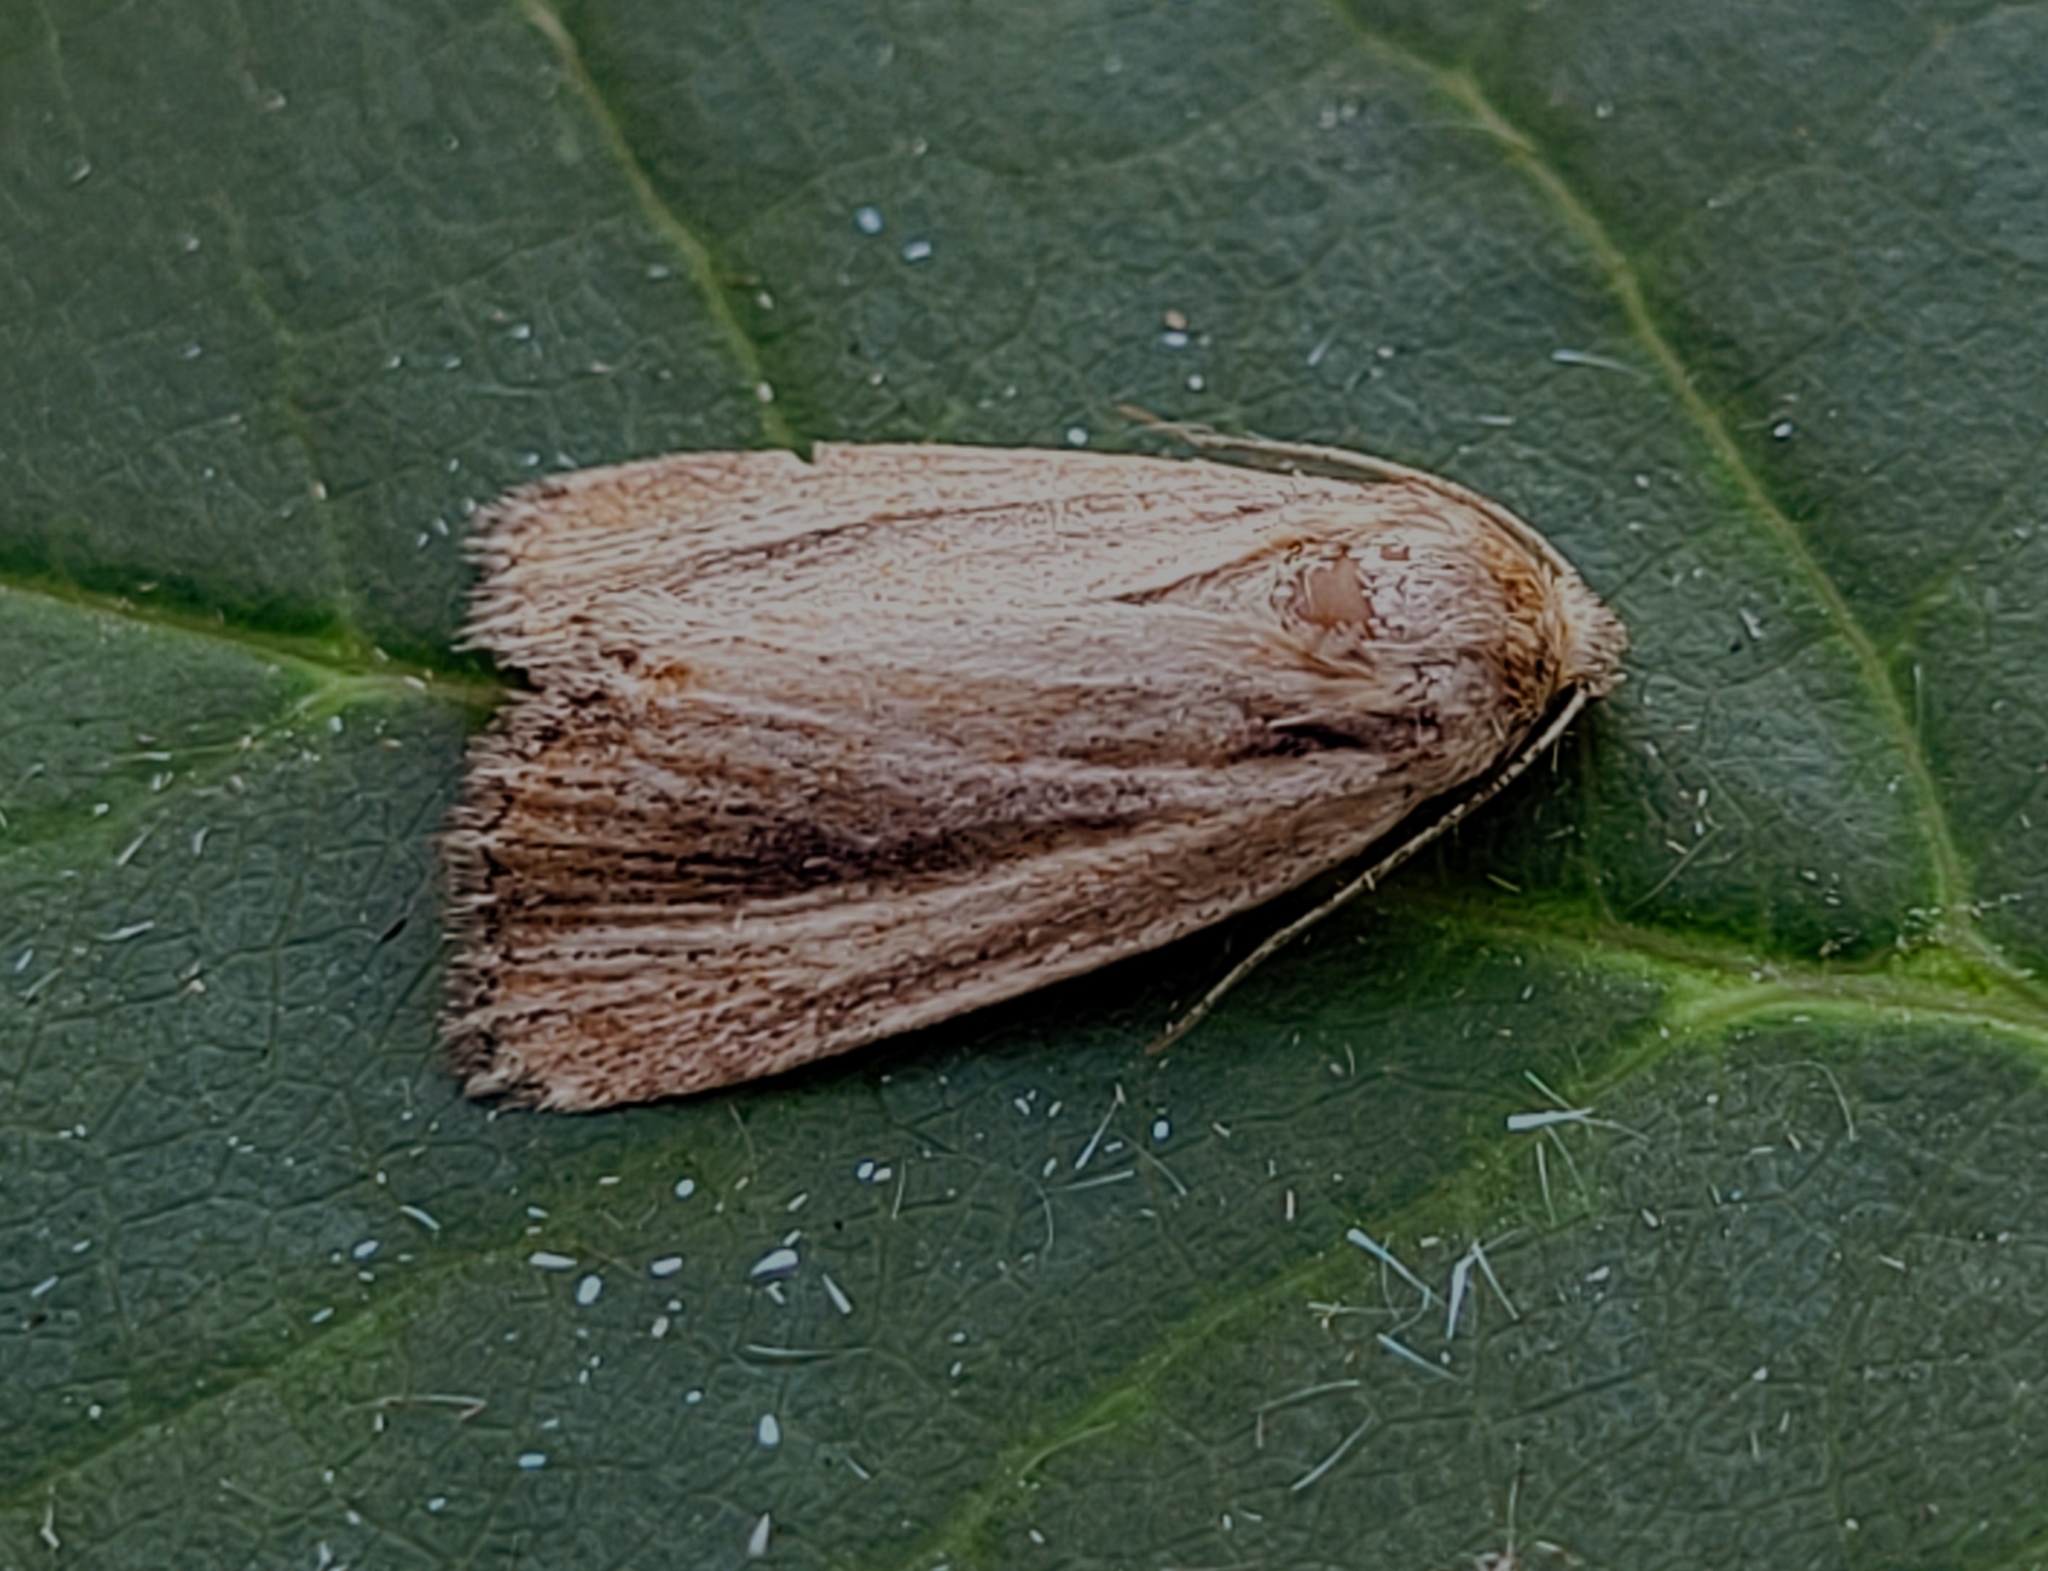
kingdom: Animalia
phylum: Arthropoda
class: Insecta
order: Lepidoptera
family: Noctuidae
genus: Hypocoena
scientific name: Hypocoena rufostrigata
